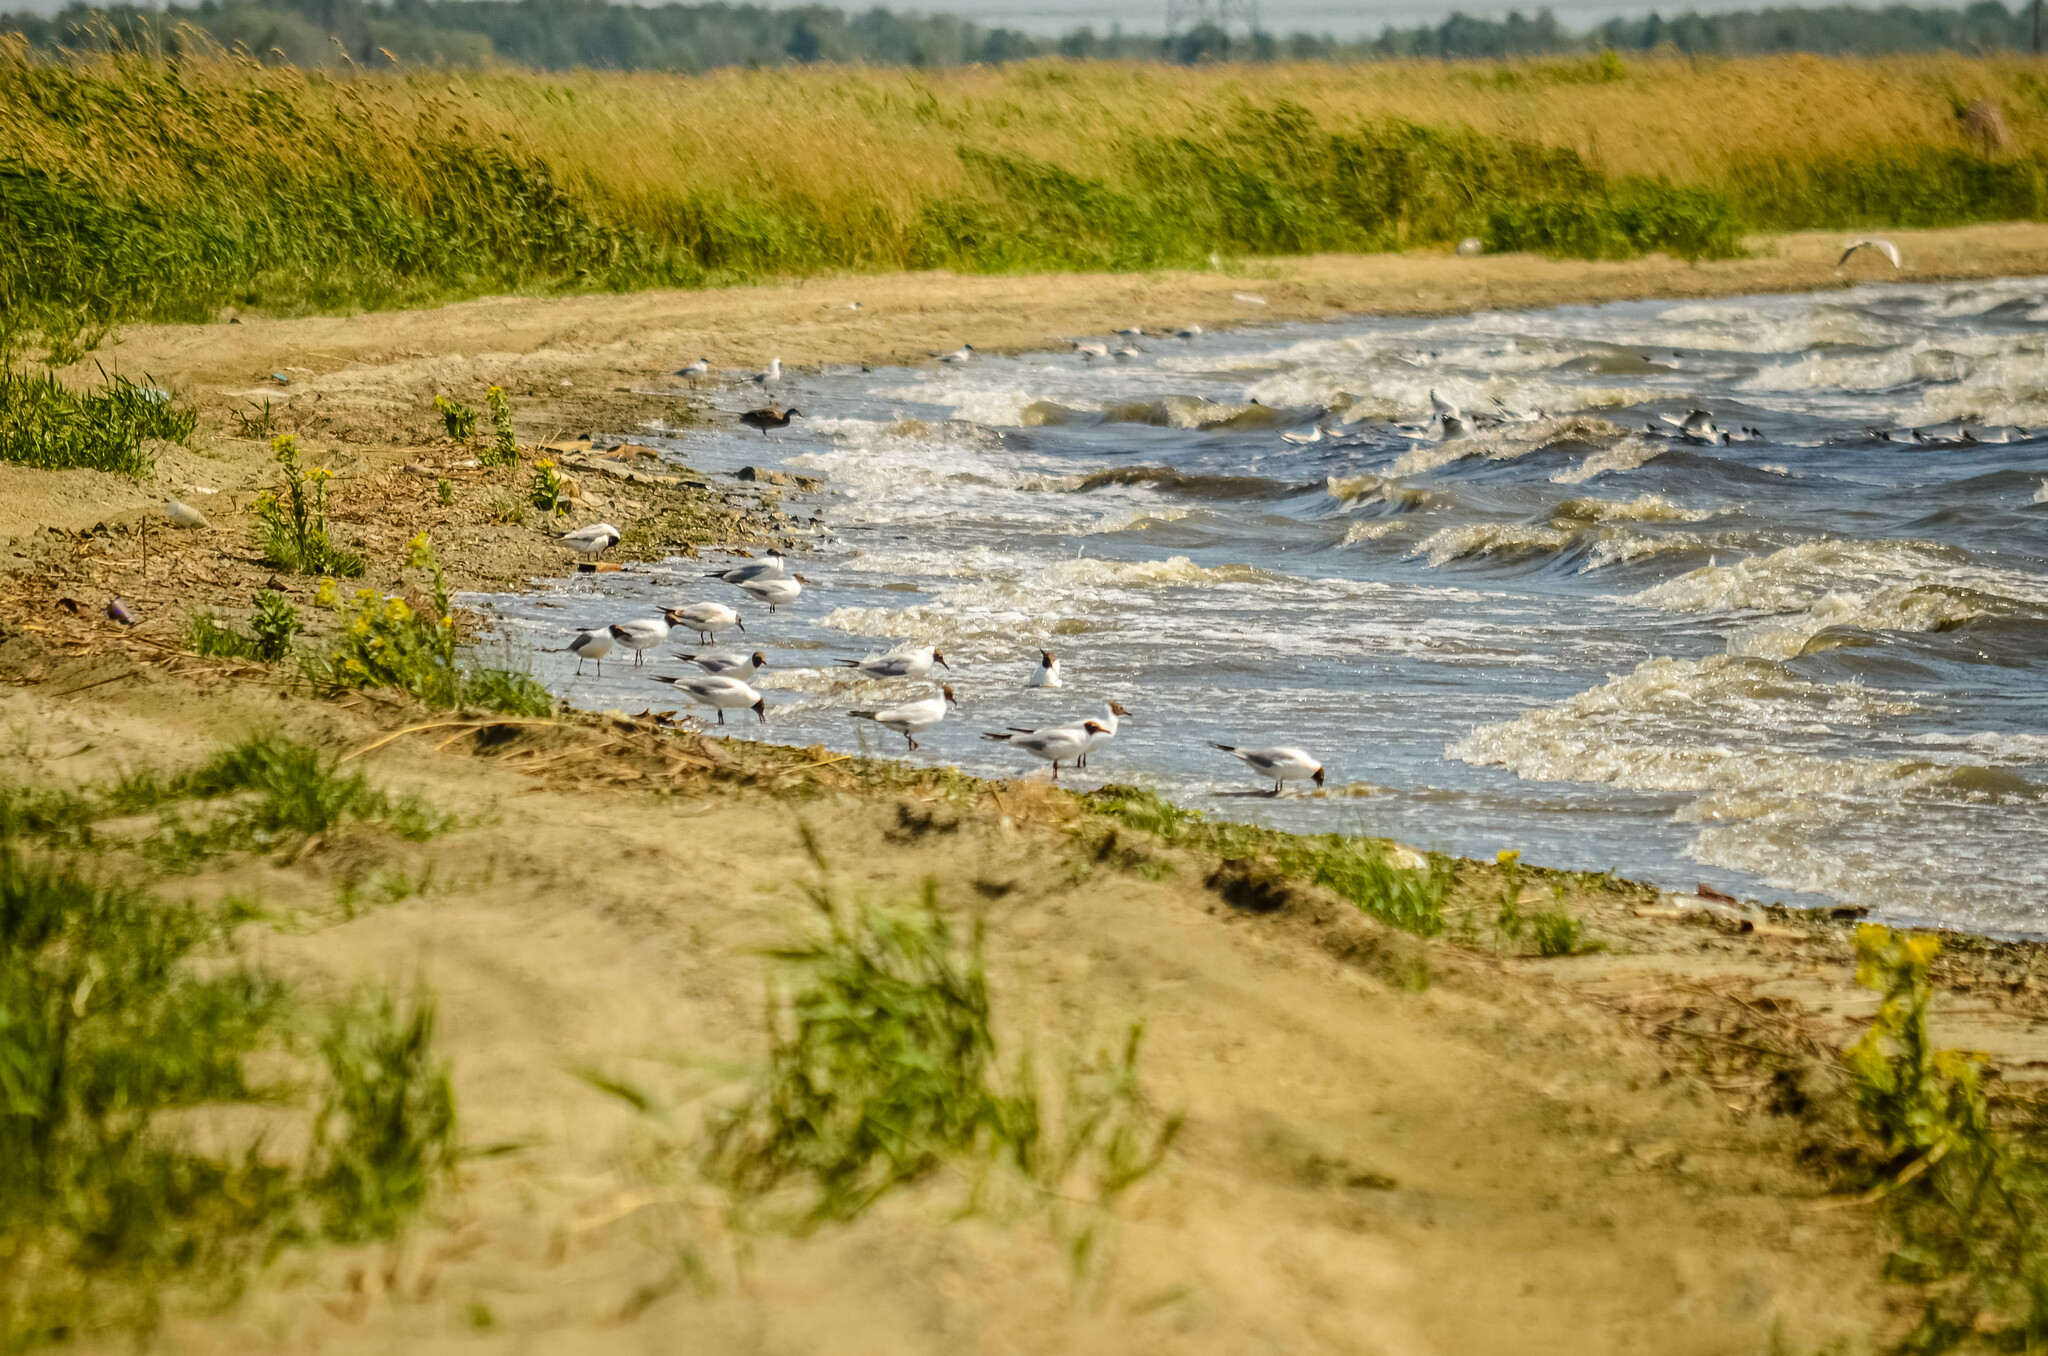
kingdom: Animalia
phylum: Chordata
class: Aves
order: Charadriiformes
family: Laridae
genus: Chroicocephalus
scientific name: Chroicocephalus ridibundus
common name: Black-headed gull
